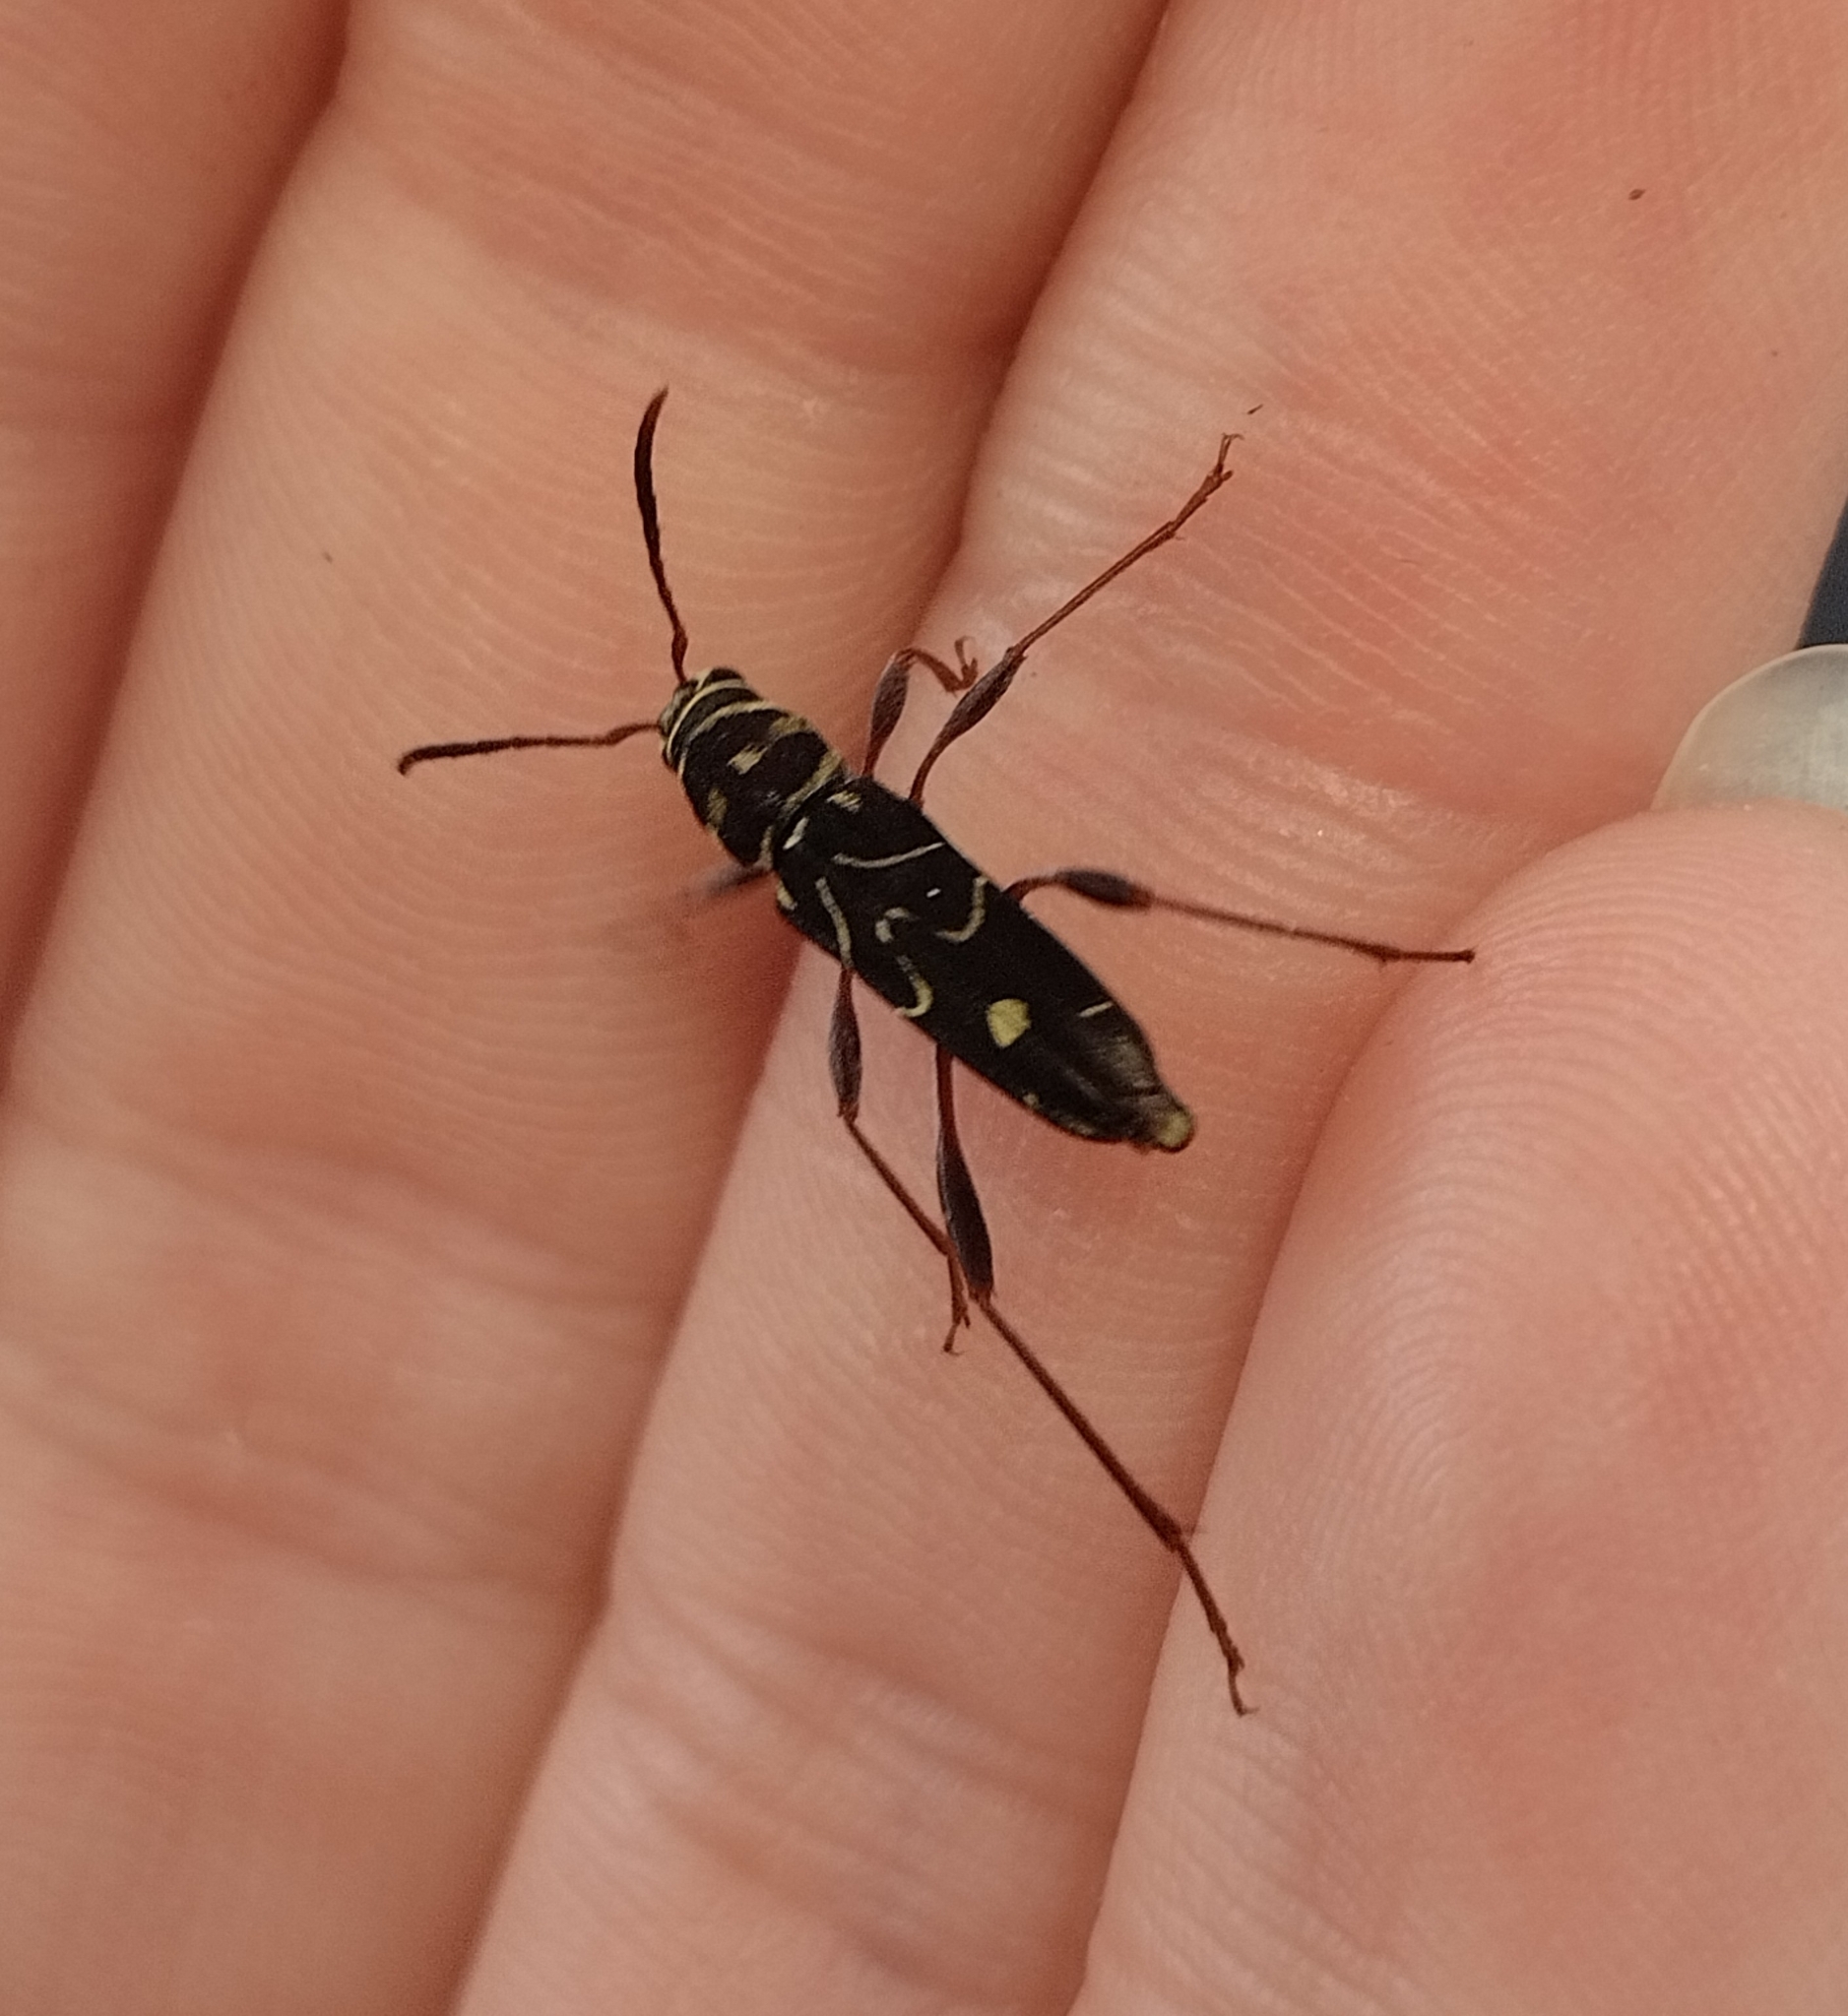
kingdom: Animalia
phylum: Arthropoda
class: Insecta
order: Coleoptera
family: Cerambycidae
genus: Cotyclytus
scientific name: Cotyclytus curvatus
